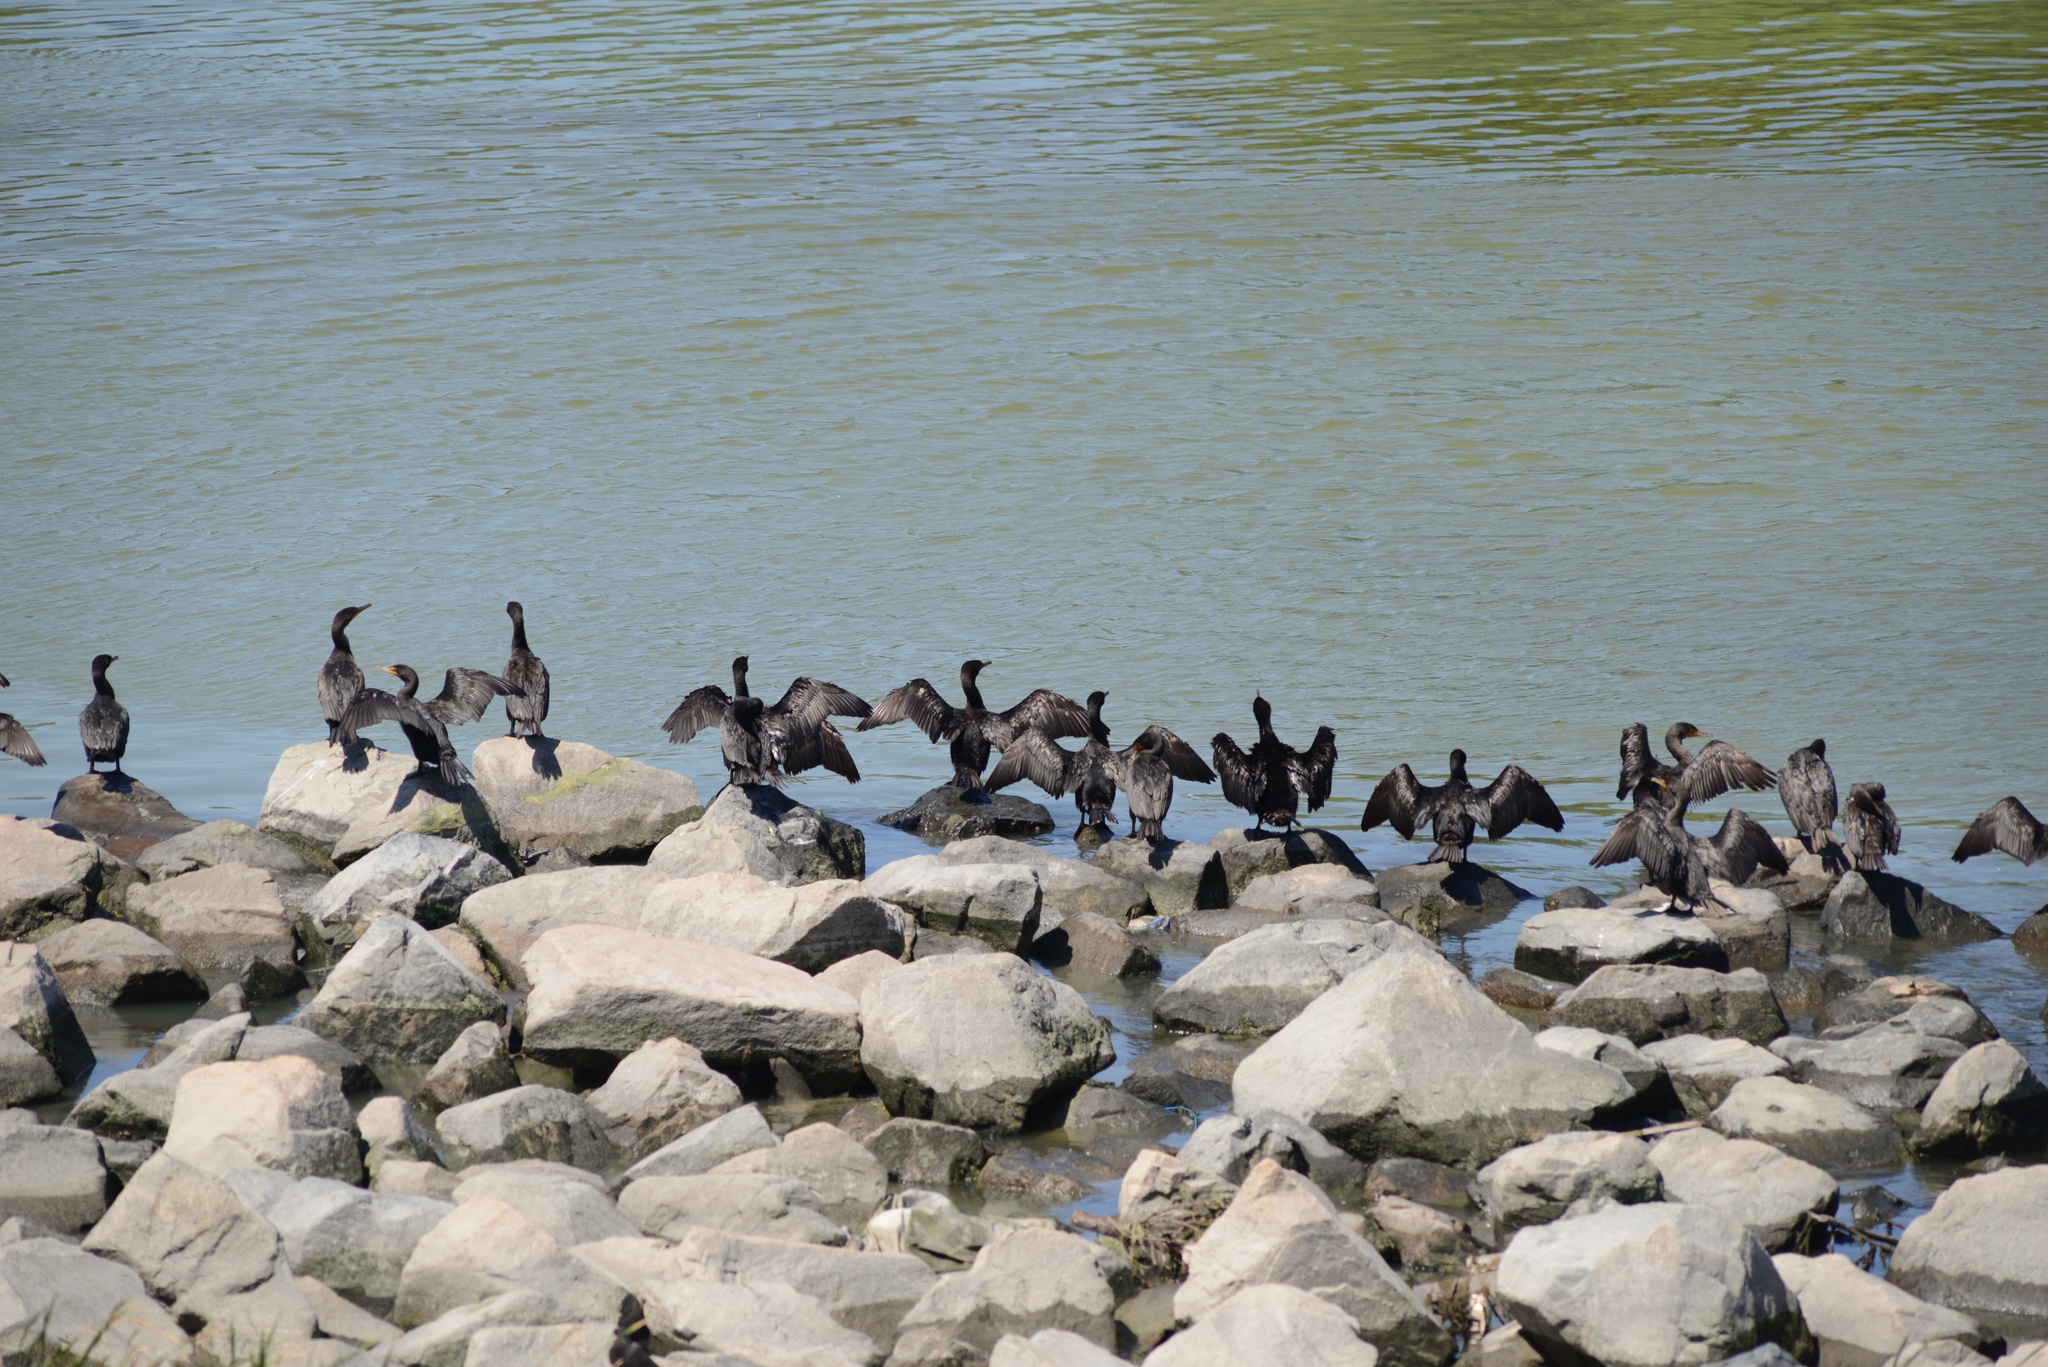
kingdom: Animalia
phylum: Chordata
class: Aves
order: Suliformes
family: Phalacrocoracidae
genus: Phalacrocorax
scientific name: Phalacrocorax auritus
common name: Double-crested cormorant
